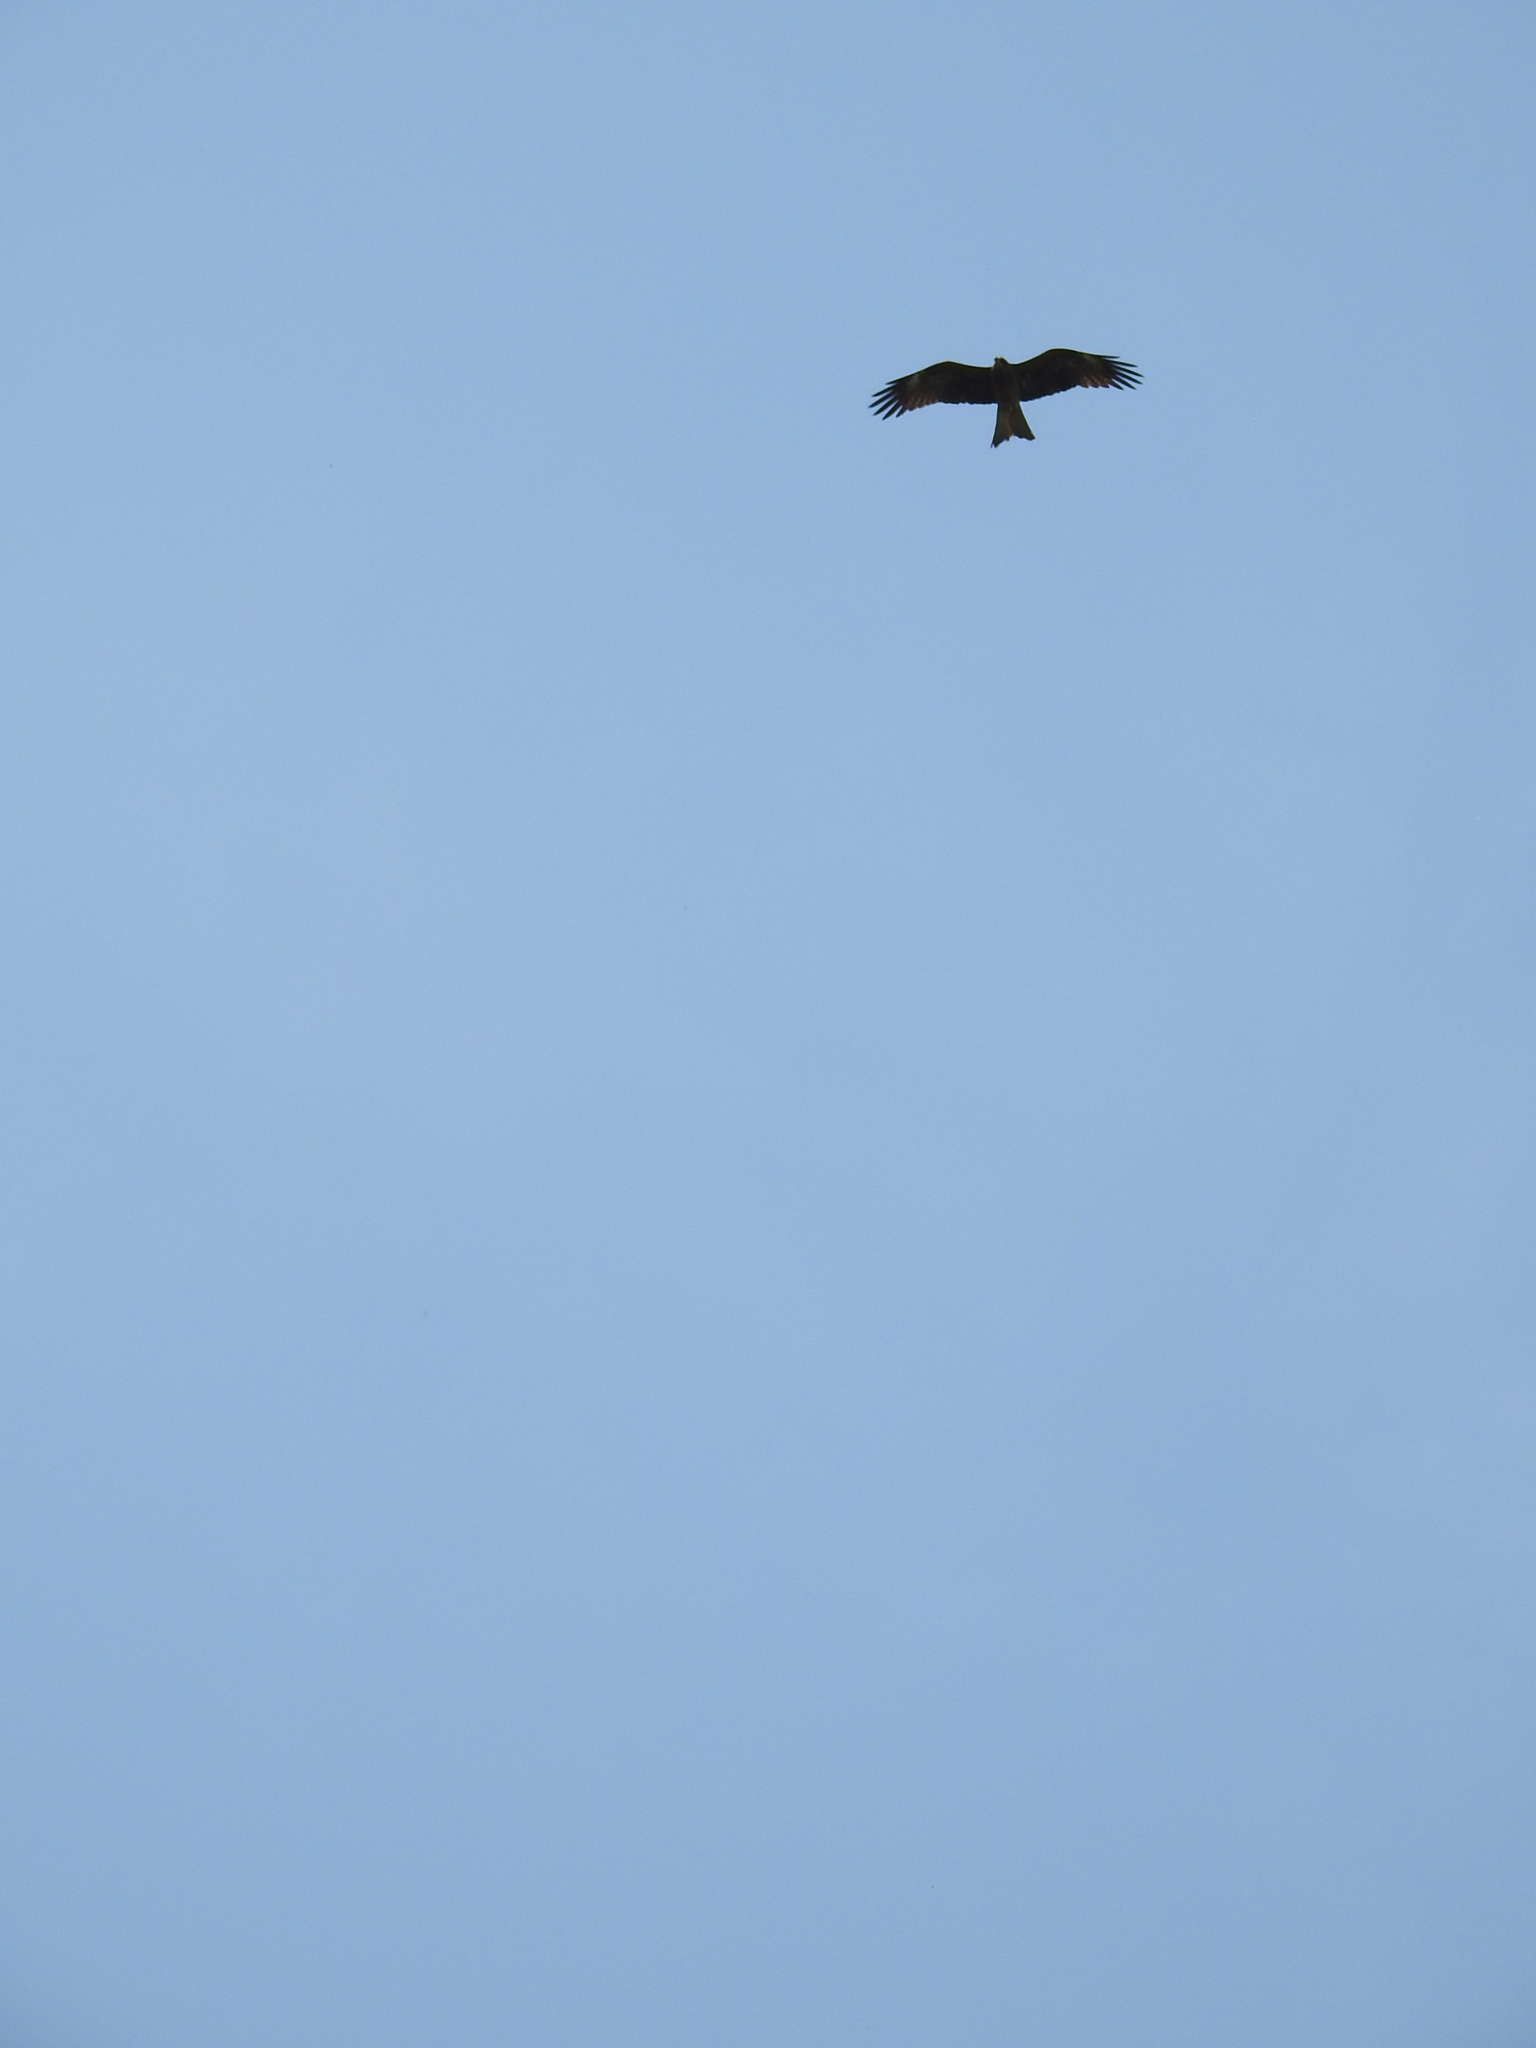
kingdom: Animalia
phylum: Chordata
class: Aves
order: Accipitriformes
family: Accipitridae
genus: Milvus
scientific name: Milvus migrans
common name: Black kite
